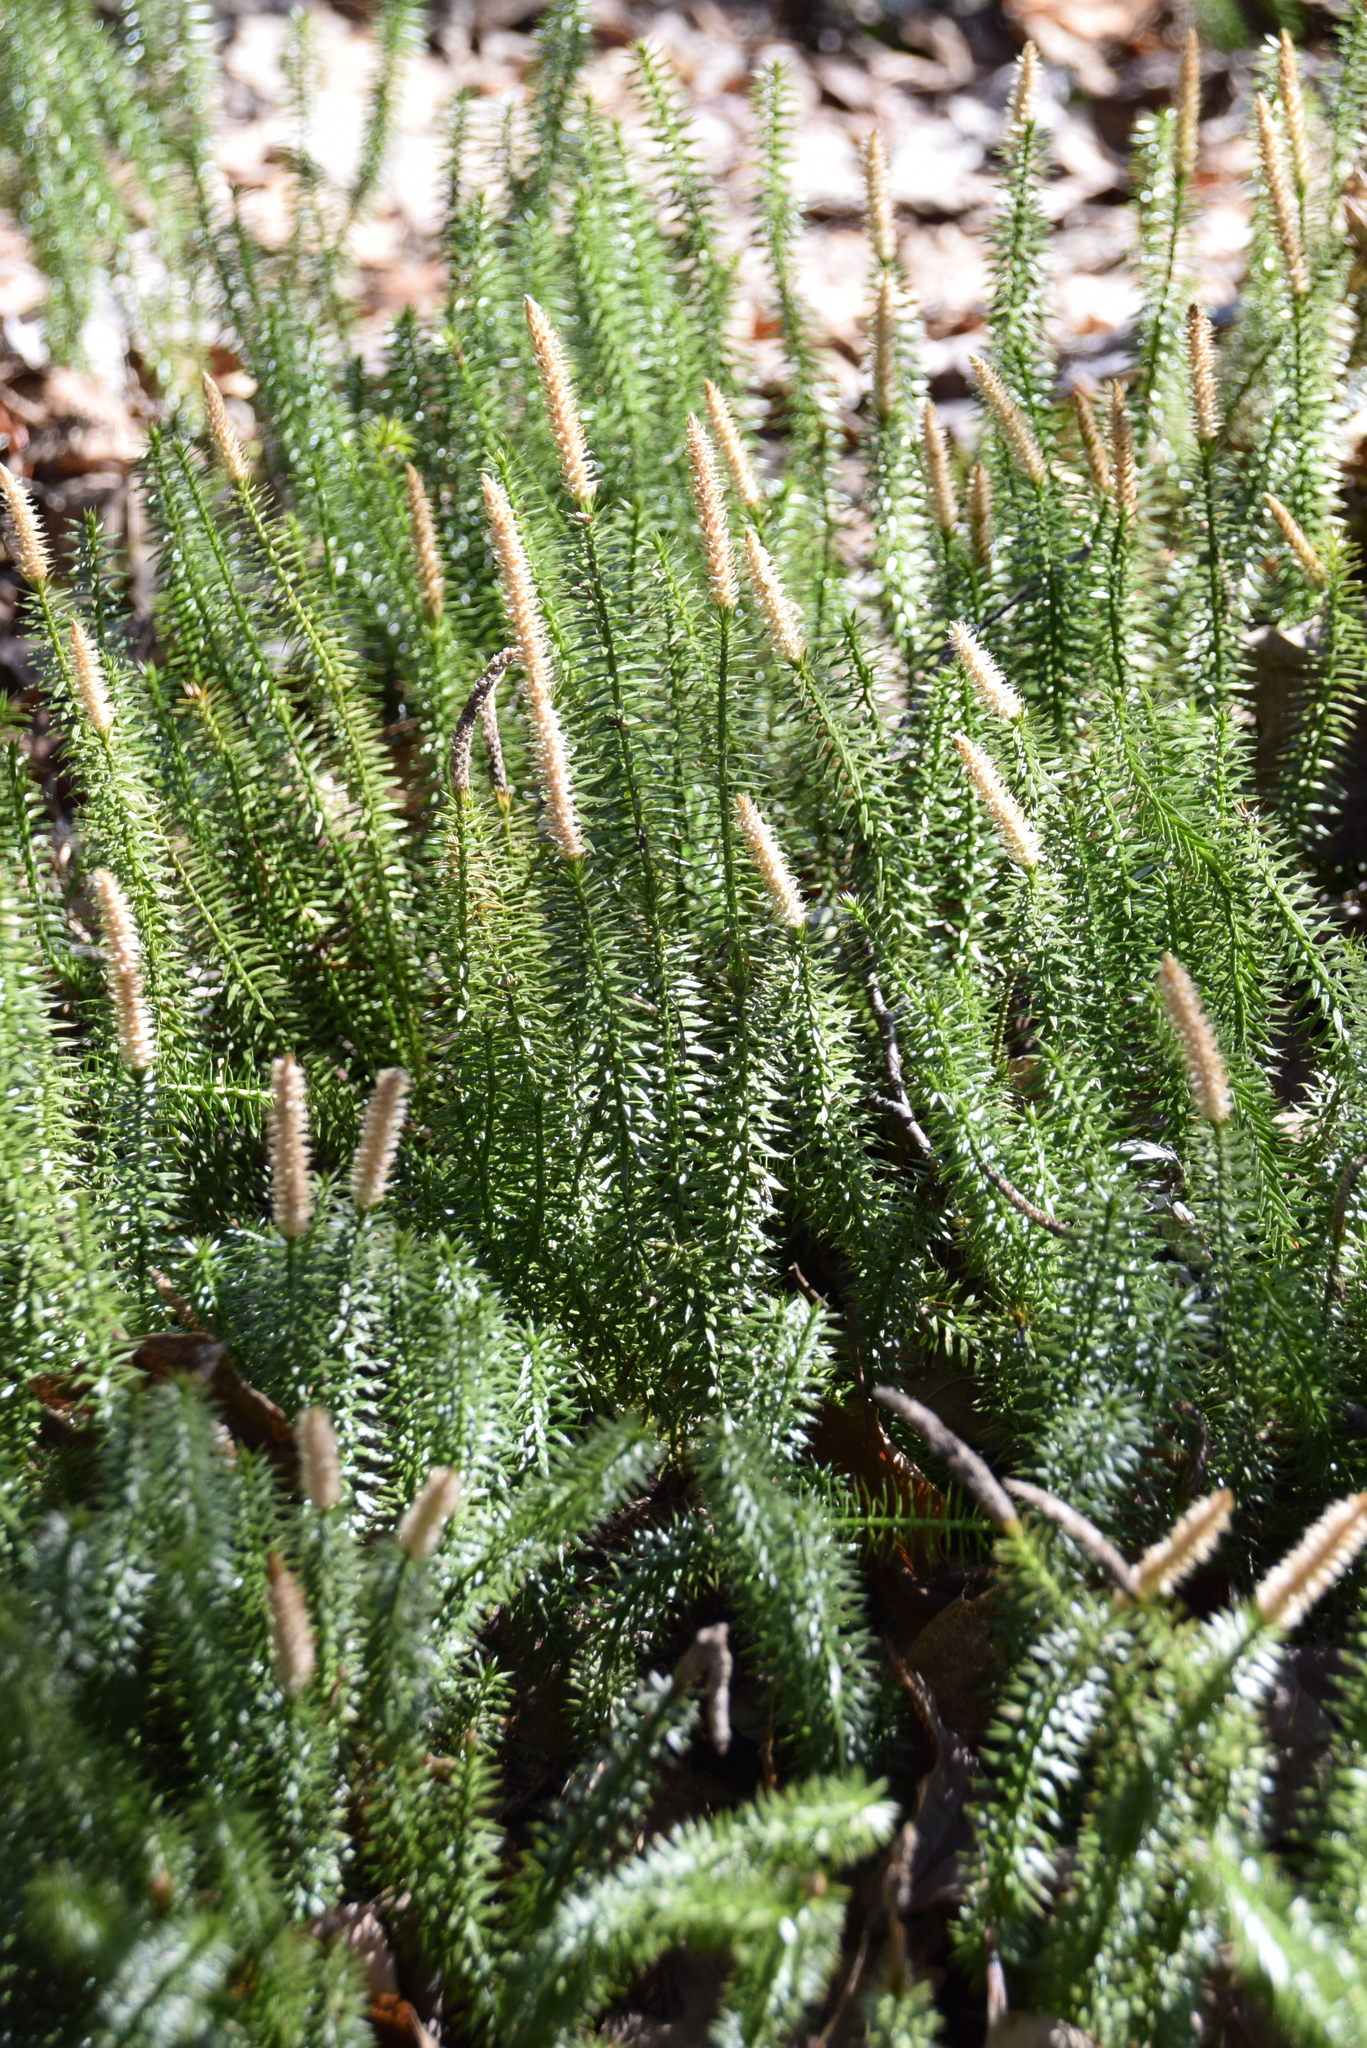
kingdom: Plantae
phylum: Tracheophyta
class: Lycopodiopsida
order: Lycopodiales
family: Lycopodiaceae
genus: Spinulum
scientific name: Spinulum annotinum
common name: Interrupted club-moss
